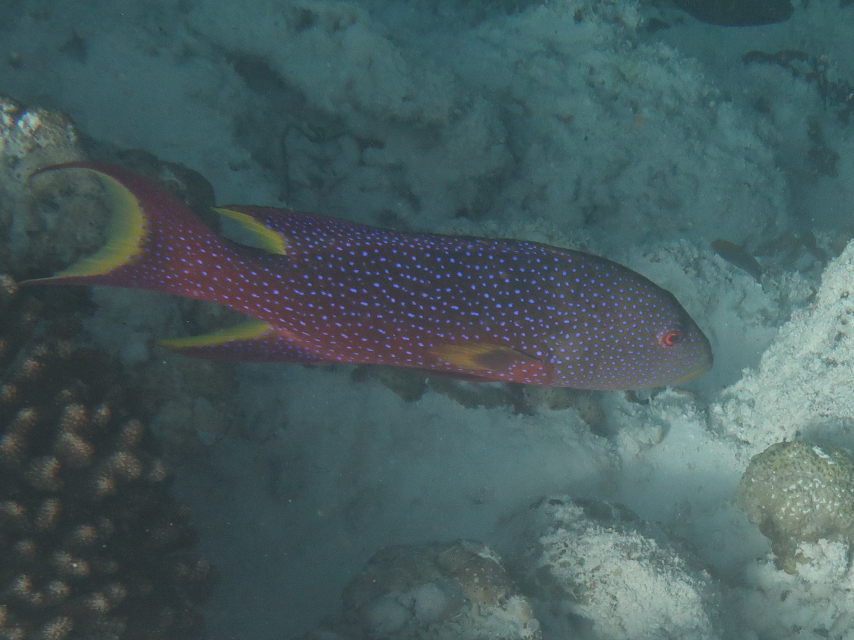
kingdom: Animalia
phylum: Chordata
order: Perciformes
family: Serranidae
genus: Variola
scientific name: Variola louti
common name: Yellow-edged lyretail
